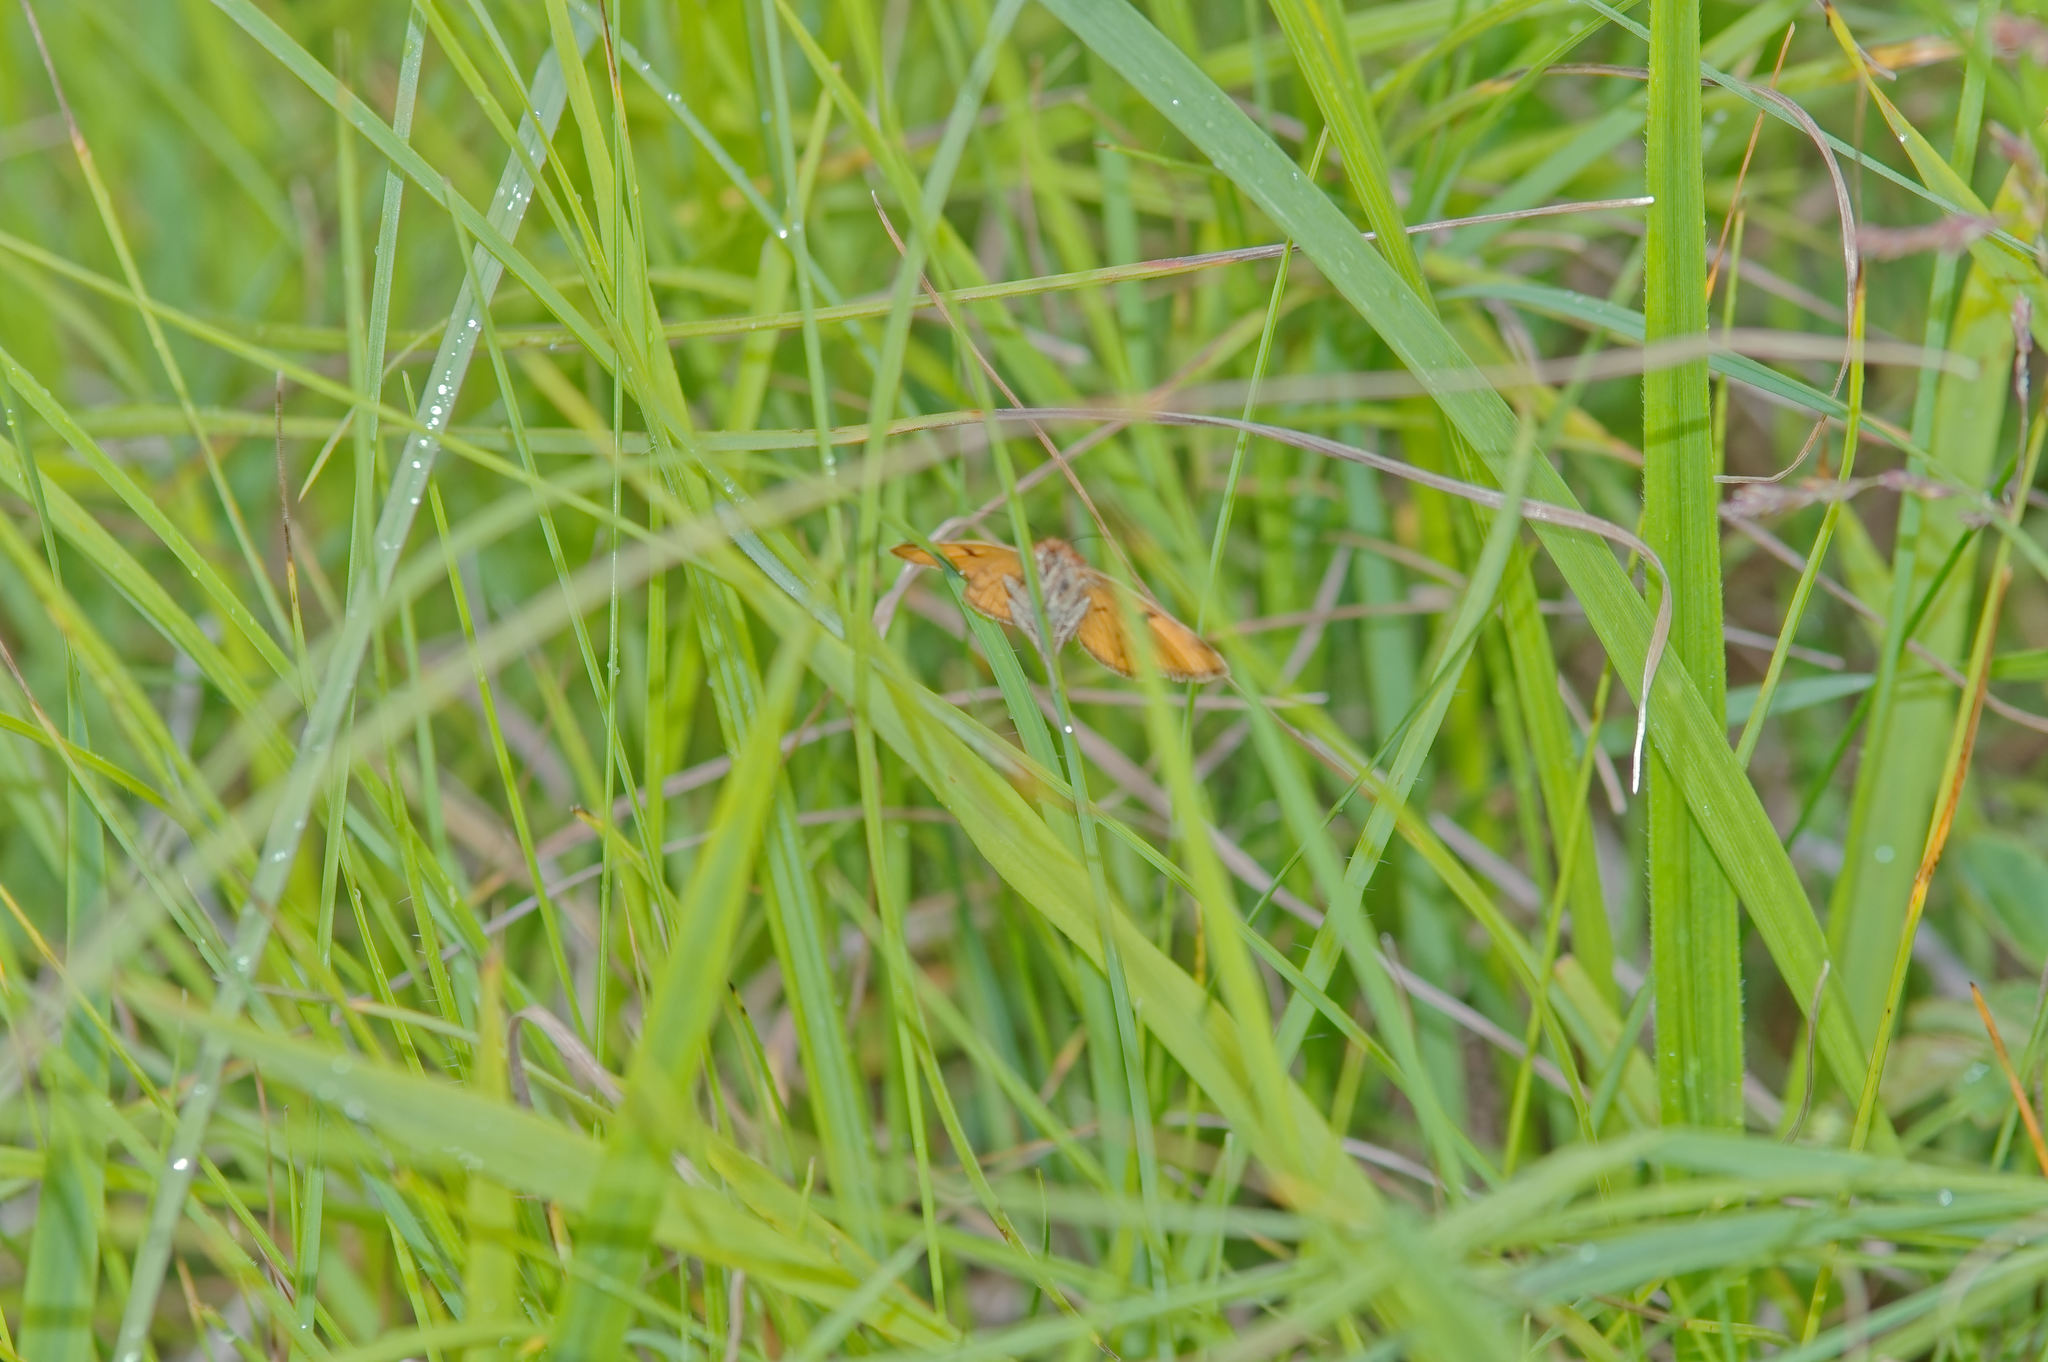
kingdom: Animalia
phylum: Arthropoda
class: Insecta
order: Lepidoptera
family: Erebidae
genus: Euclidia
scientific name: Euclidia glyphica
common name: Burnet companion
